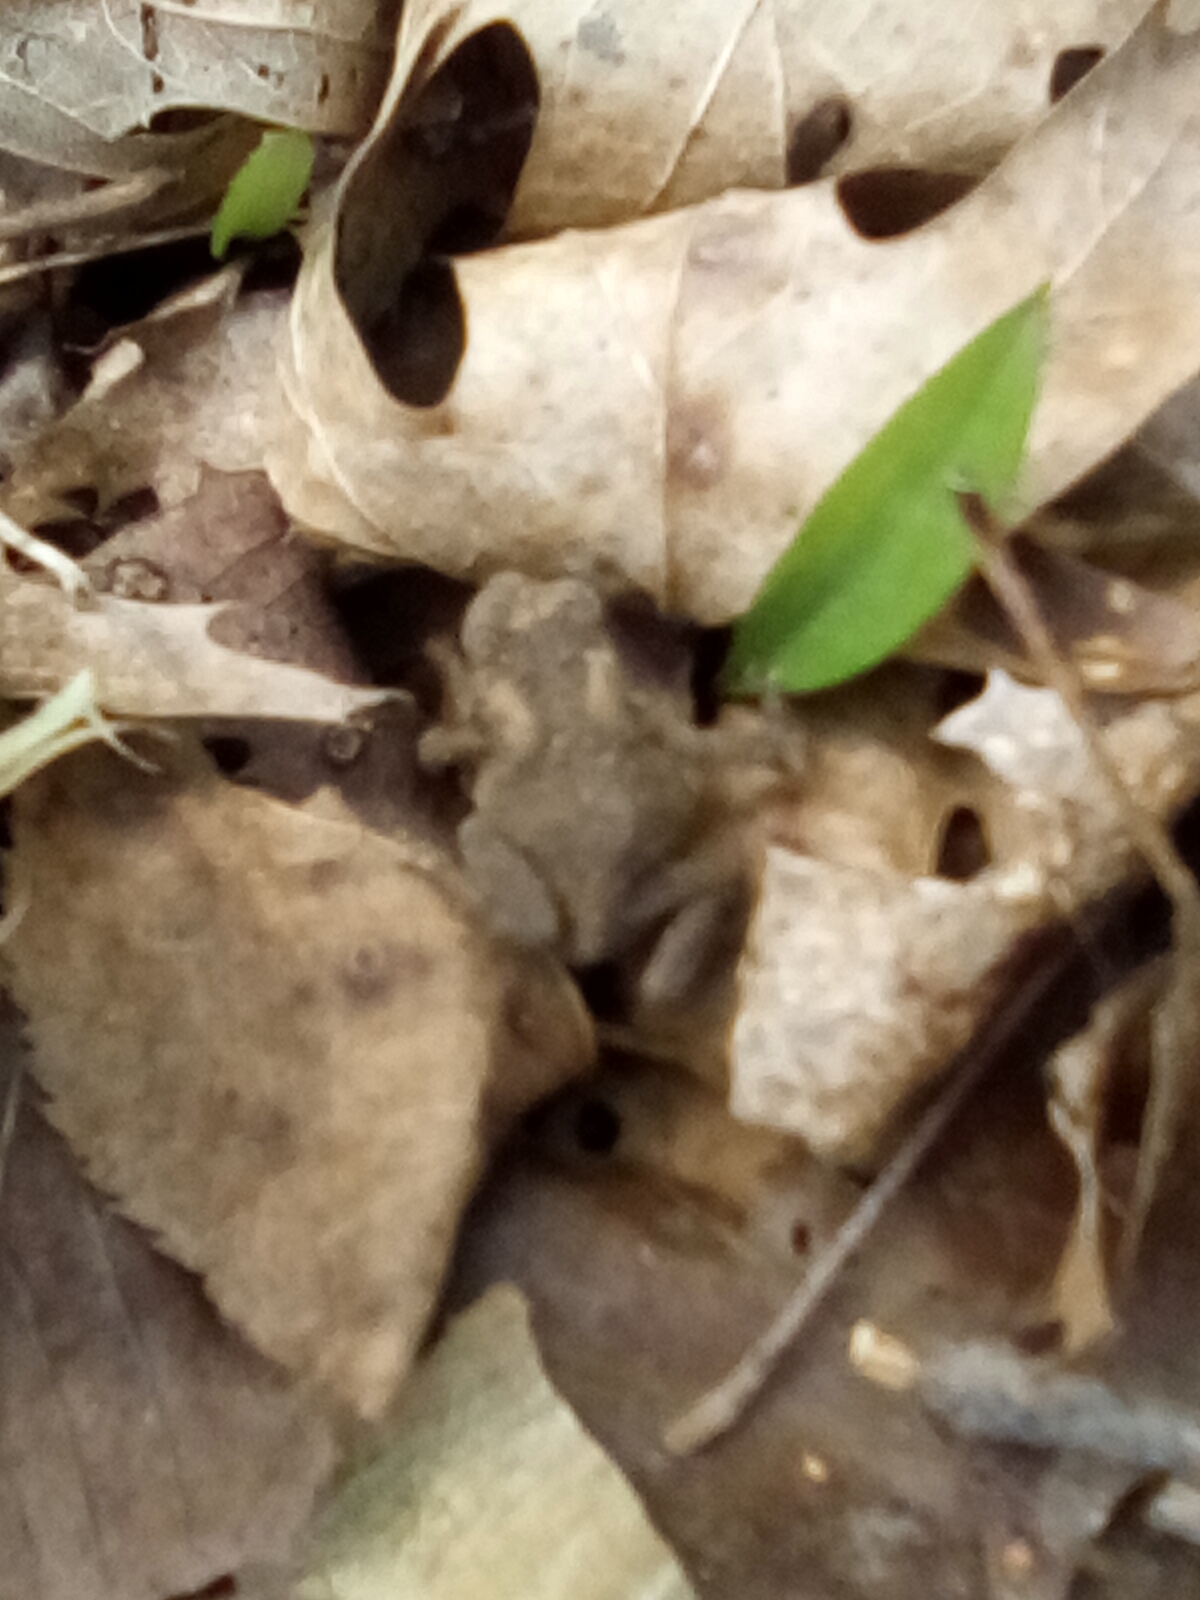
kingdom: Animalia
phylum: Chordata
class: Amphibia
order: Anura
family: Bufonidae
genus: Anaxyrus
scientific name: Anaxyrus americanus
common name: American toad
